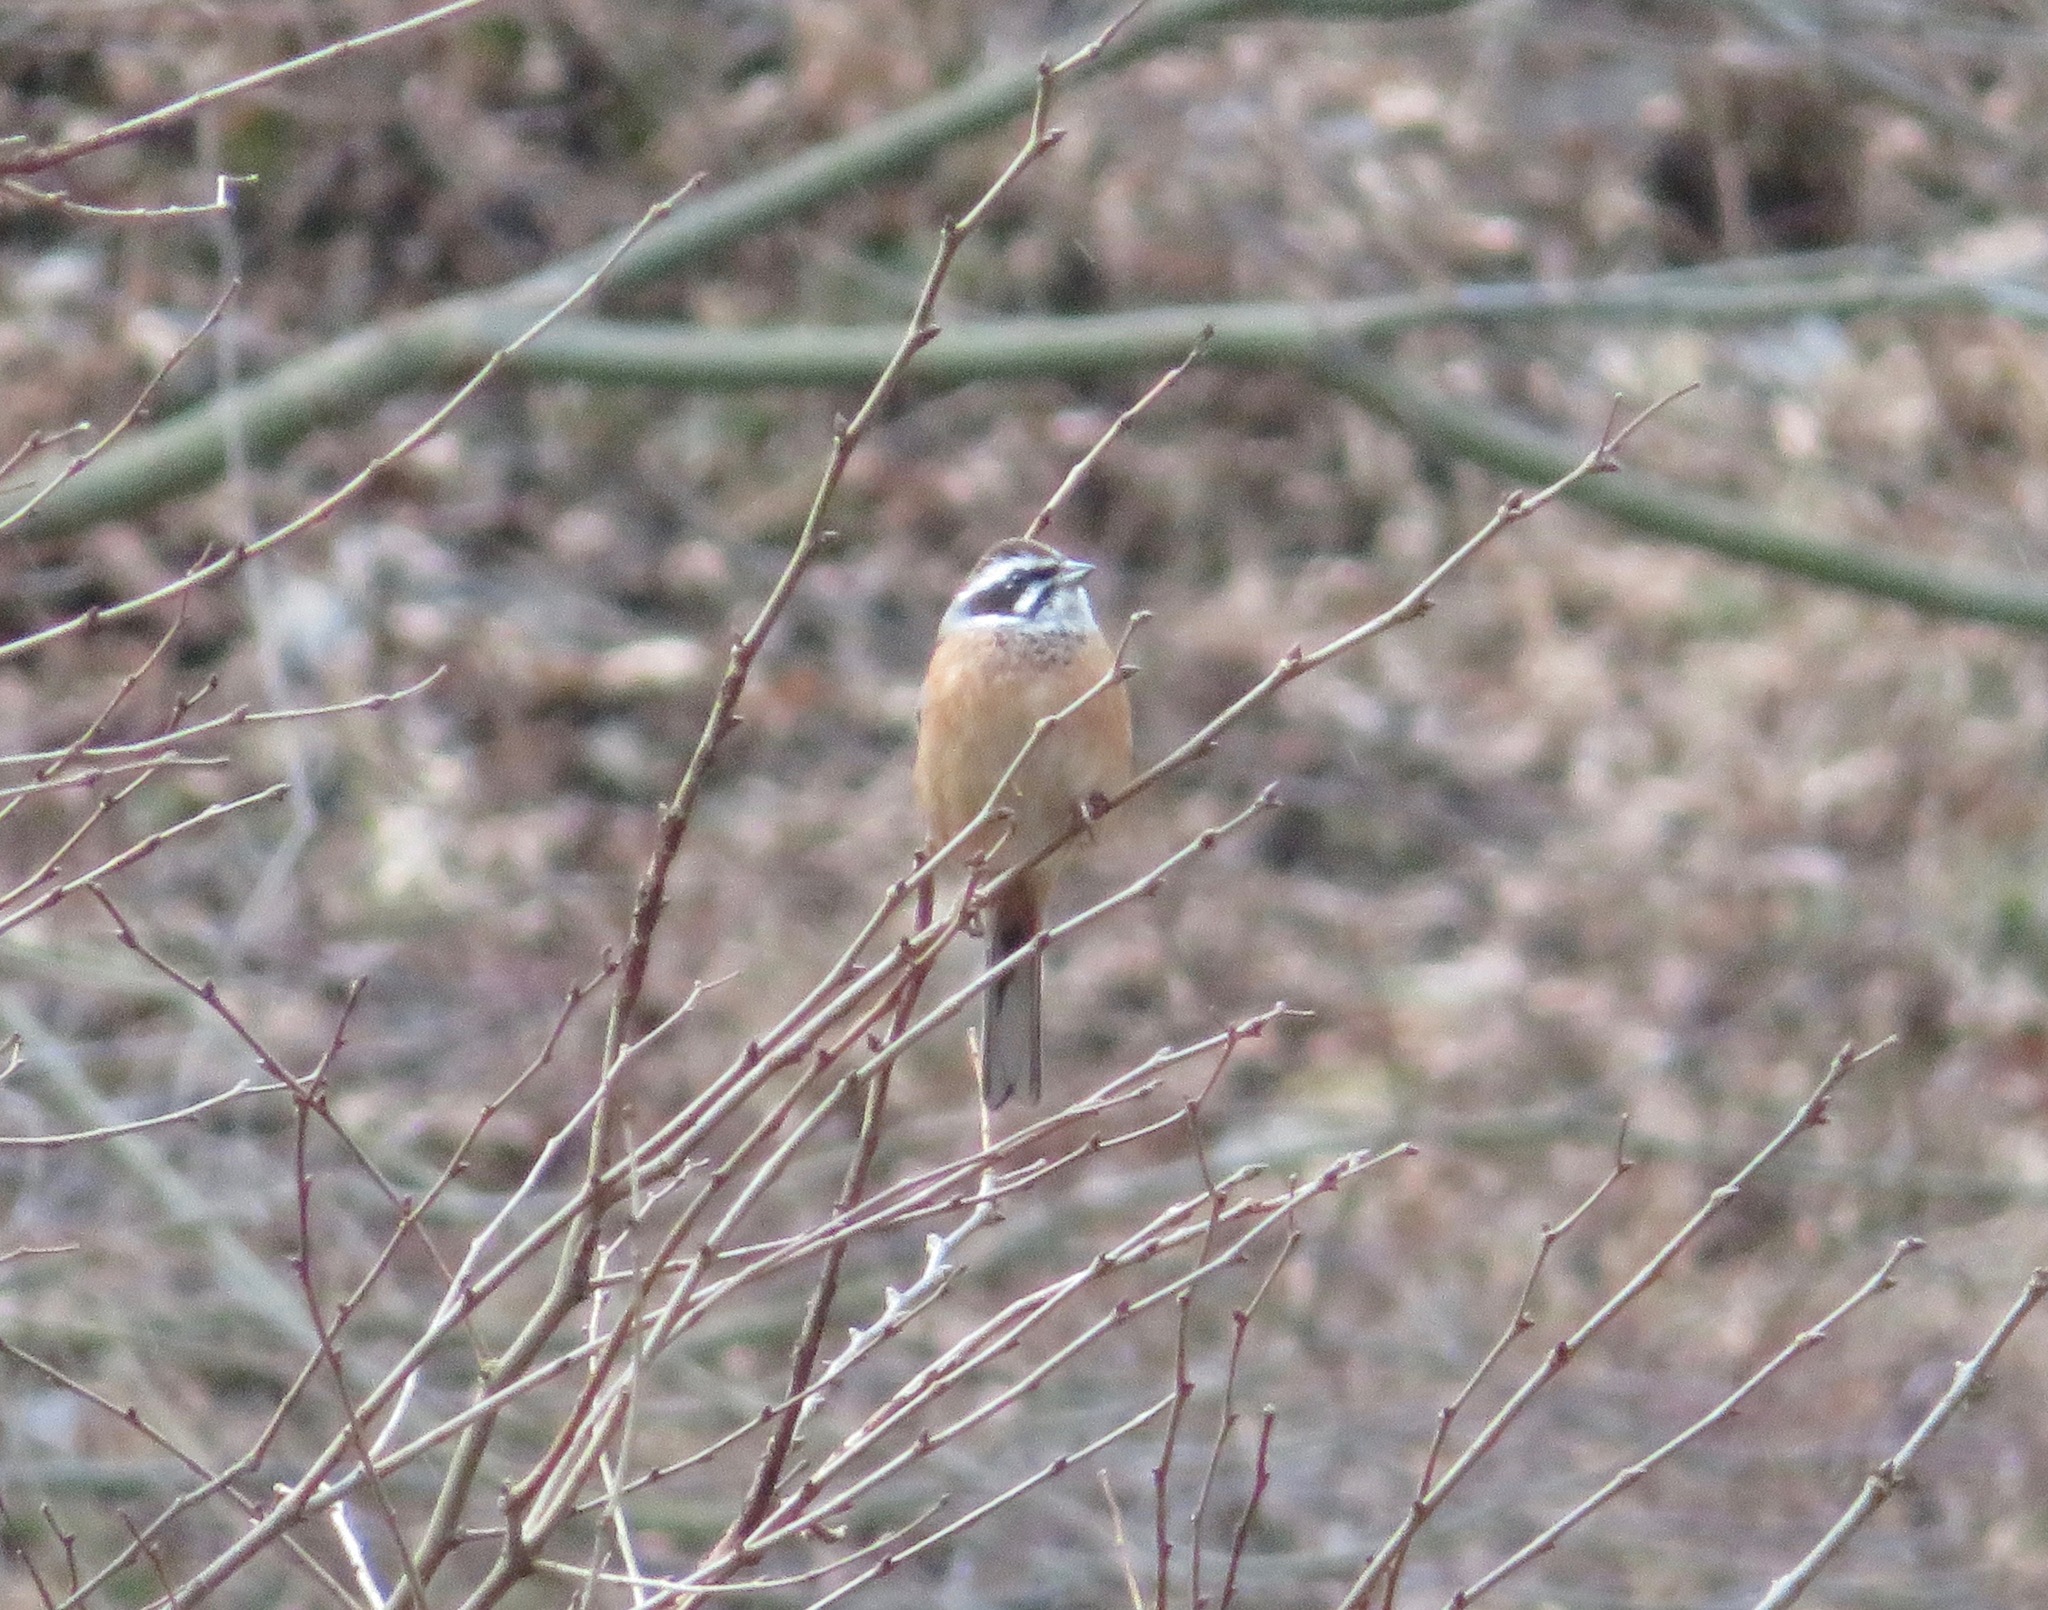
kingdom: Animalia
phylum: Chordata
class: Aves
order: Passeriformes
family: Emberizidae
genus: Emberiza
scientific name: Emberiza cioides
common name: Meadow bunting
